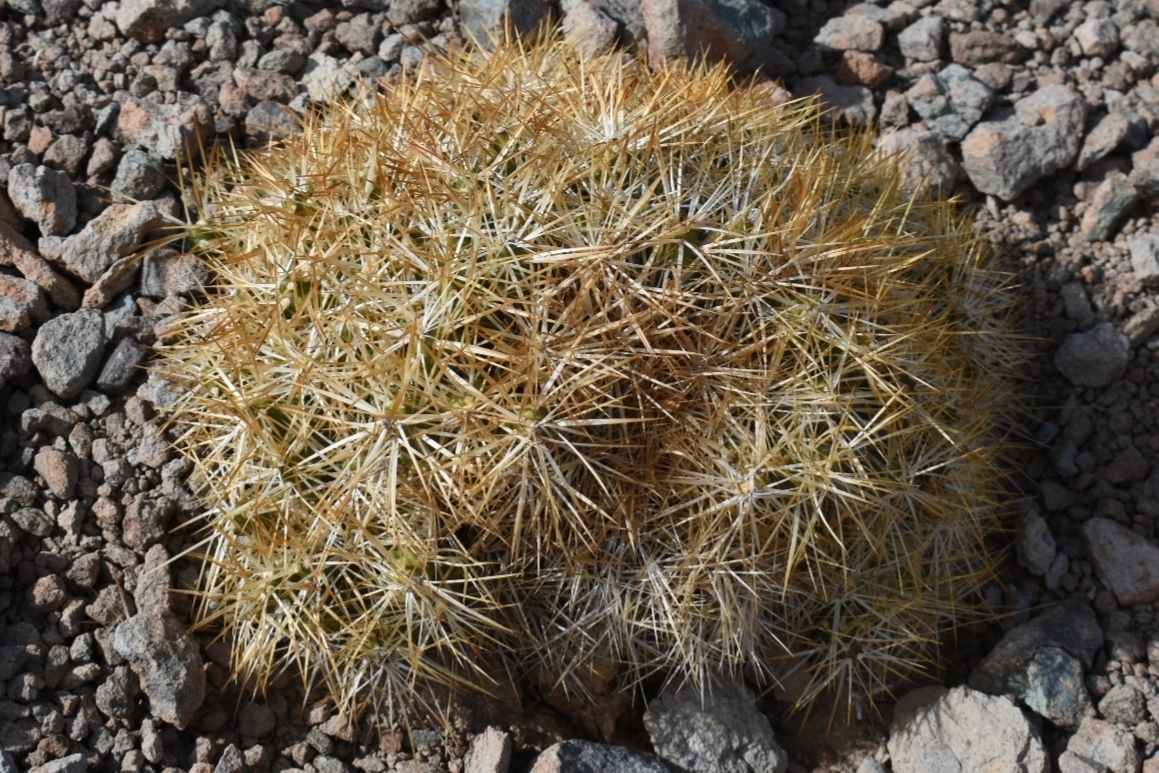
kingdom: Plantae
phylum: Tracheophyta
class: Magnoliopsida
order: Caryophyllales
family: Cactaceae
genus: Maihueniopsis
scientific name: Maihueniopsis glomerata
